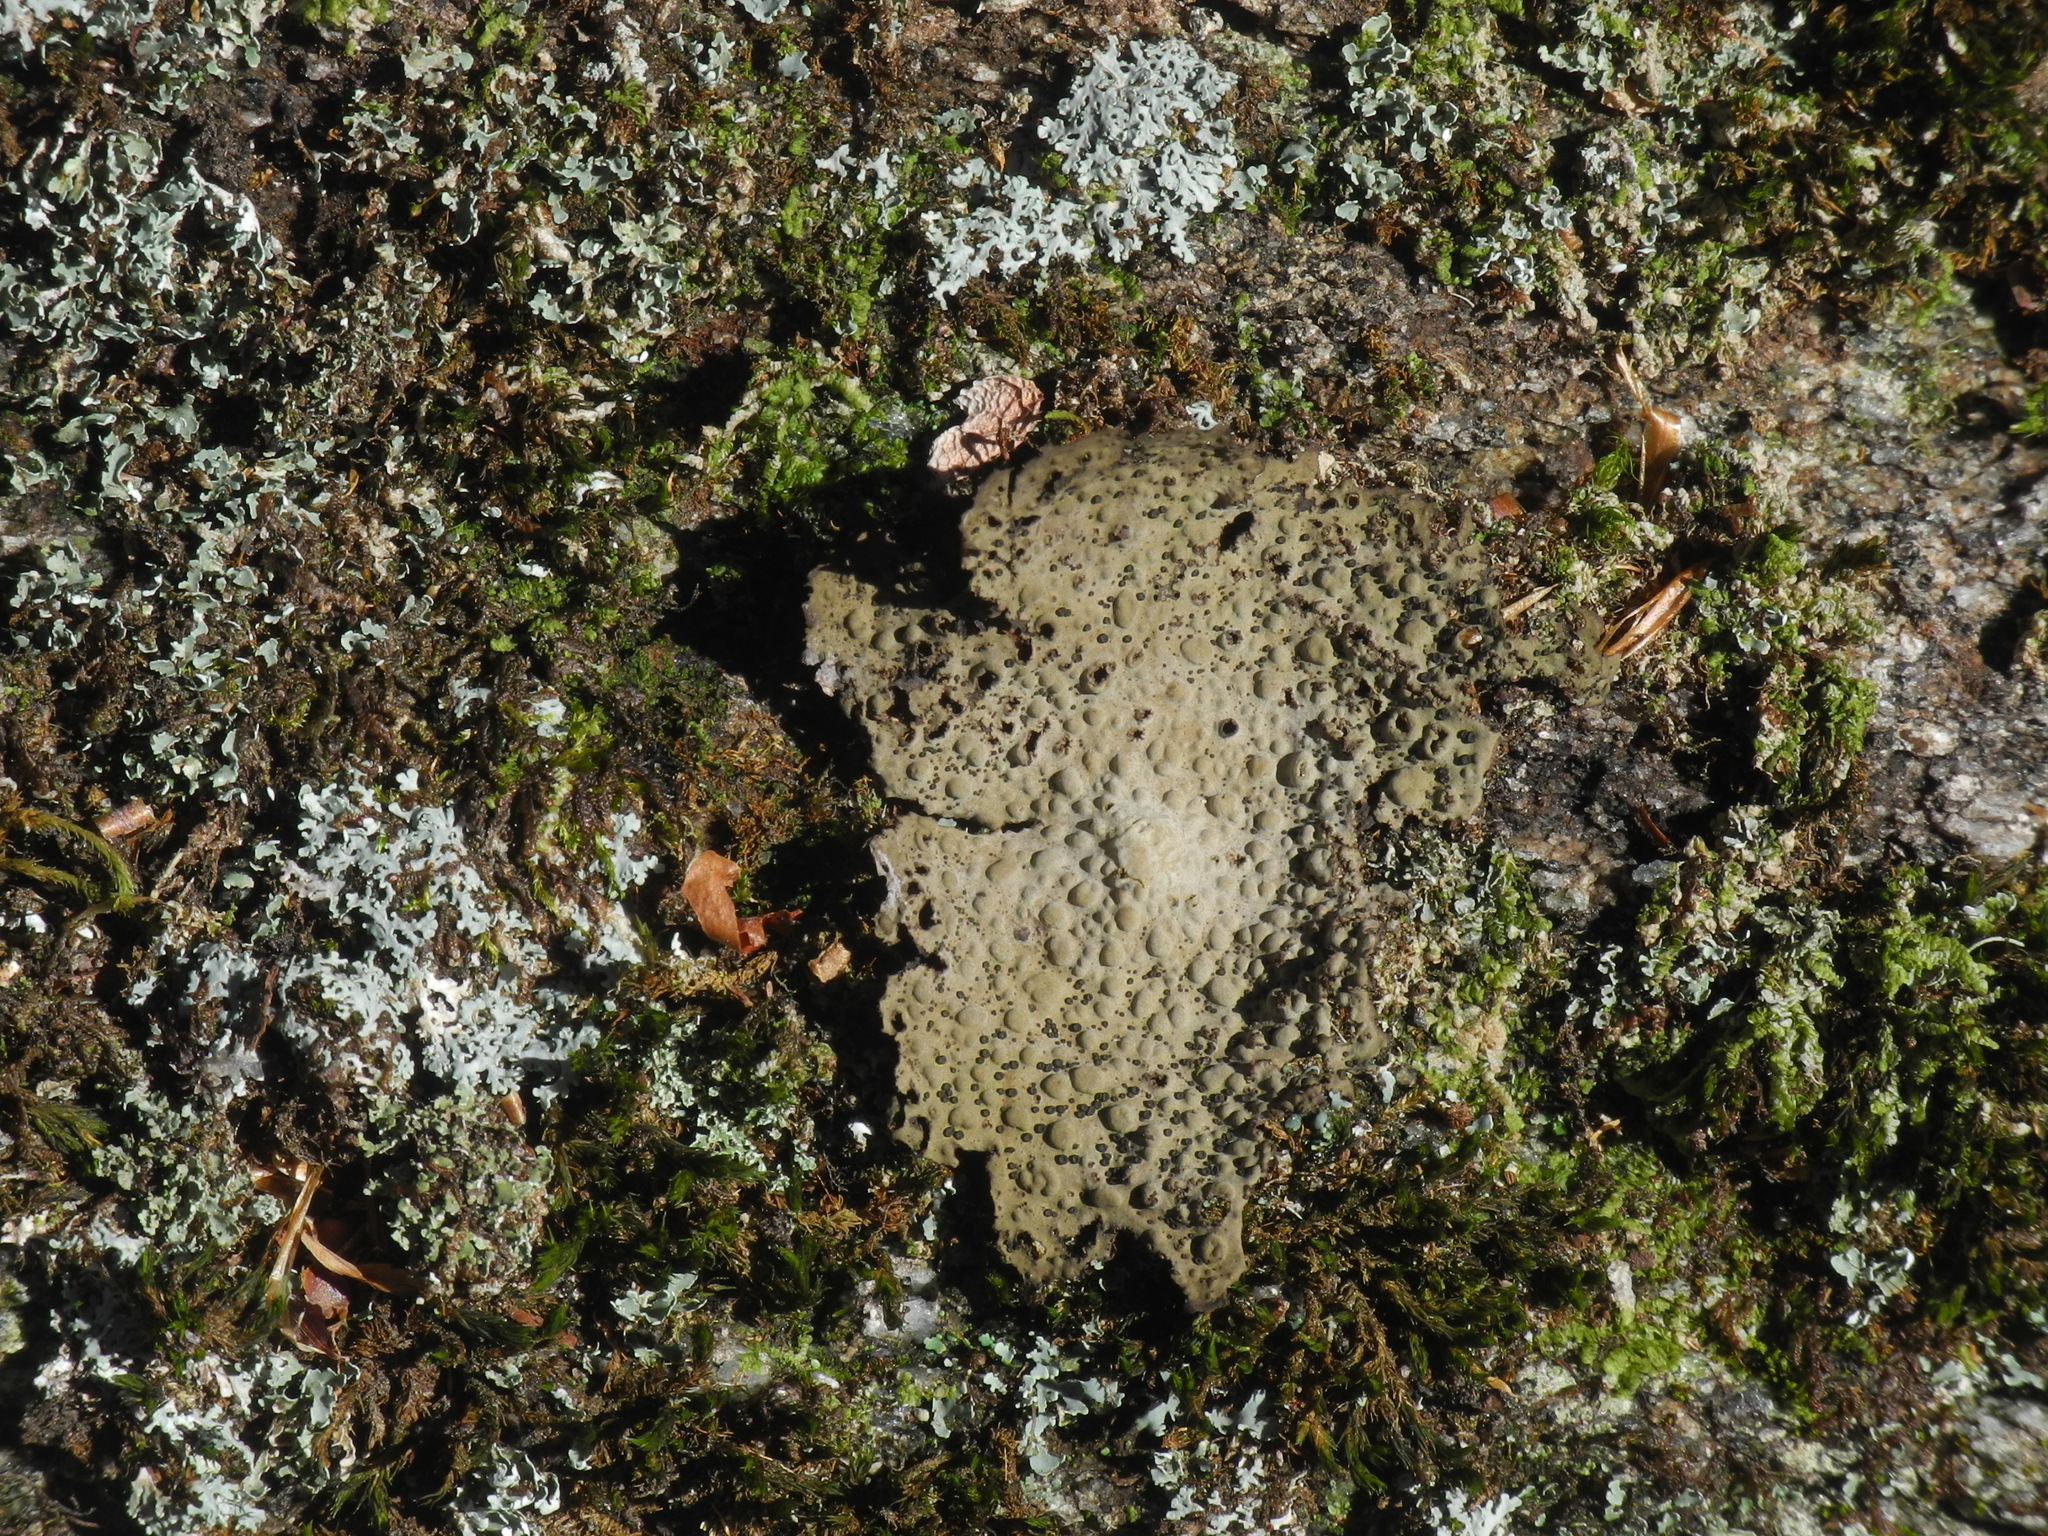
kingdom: Fungi
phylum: Ascomycota
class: Lecanoromycetes
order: Umbilicariales
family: Umbilicariaceae
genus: Lasallia
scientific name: Lasallia papulosa
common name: Common toadskin lichen
